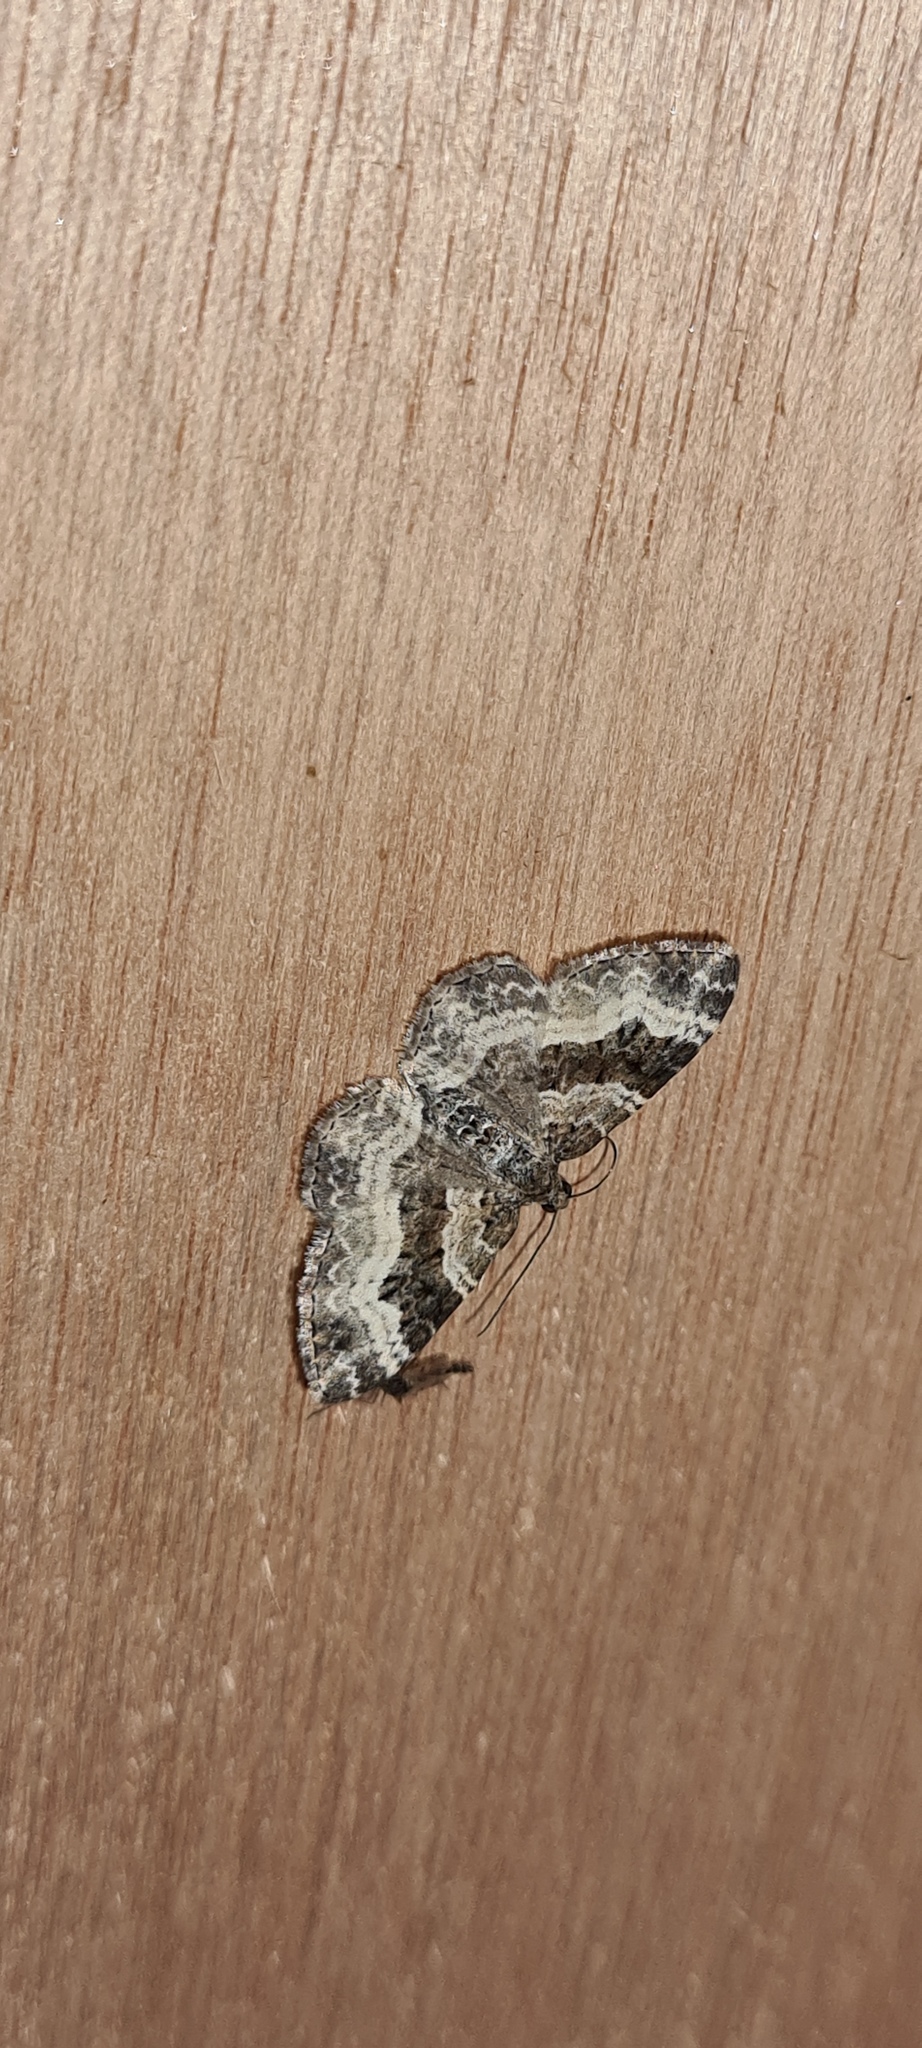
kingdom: Animalia
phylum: Arthropoda
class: Insecta
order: Lepidoptera
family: Geometridae
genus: Epirrhoe
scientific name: Epirrhoe alternata
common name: Common carpet
